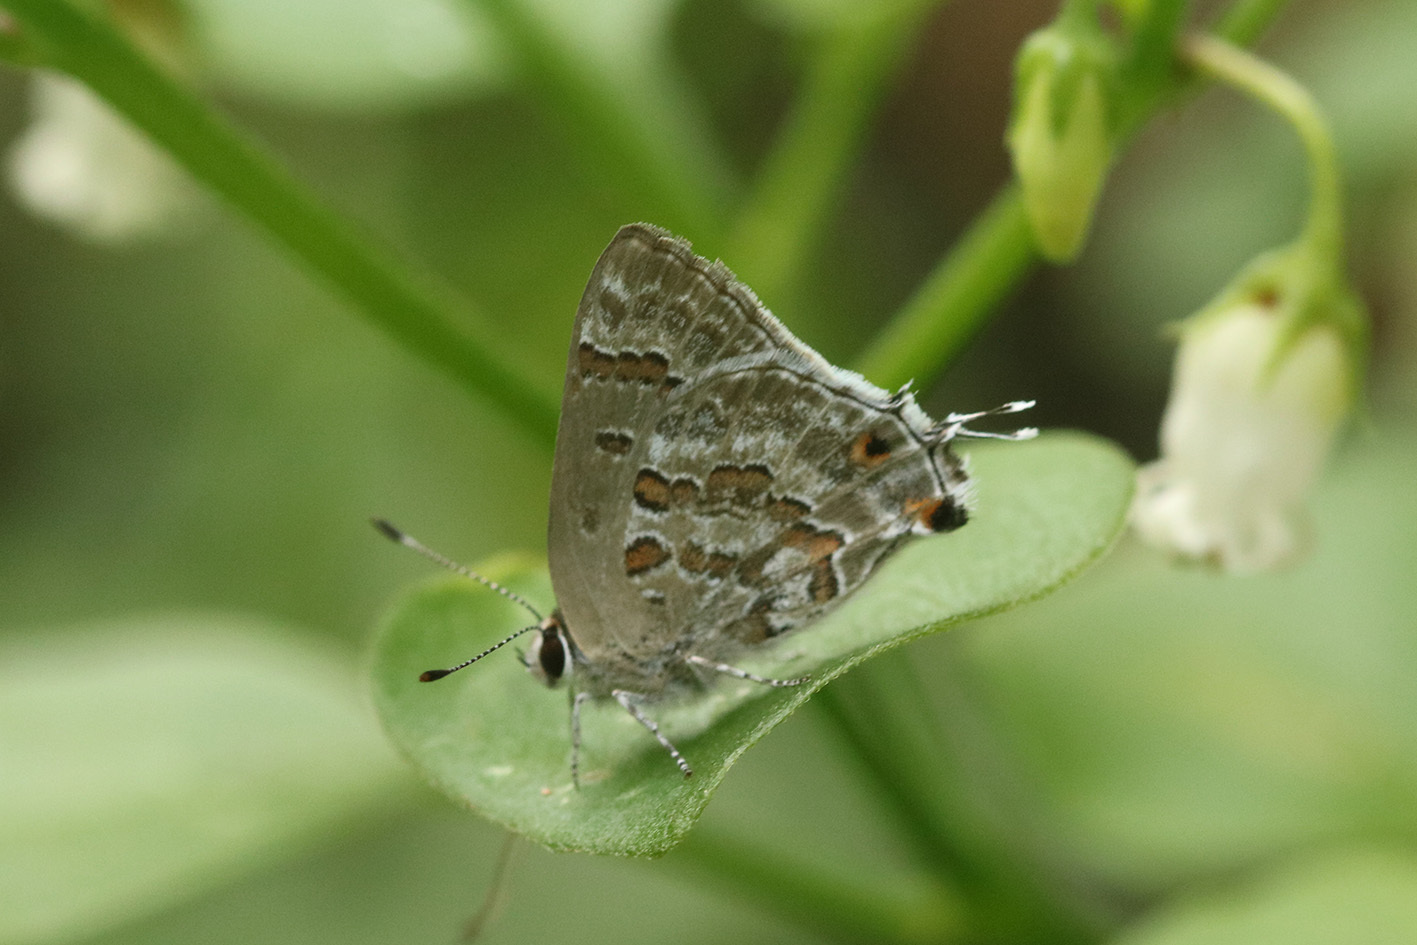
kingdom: Animalia
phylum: Arthropoda
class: Insecta
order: Lepidoptera
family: Lycaenidae
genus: Strymon
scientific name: Strymon lucena
